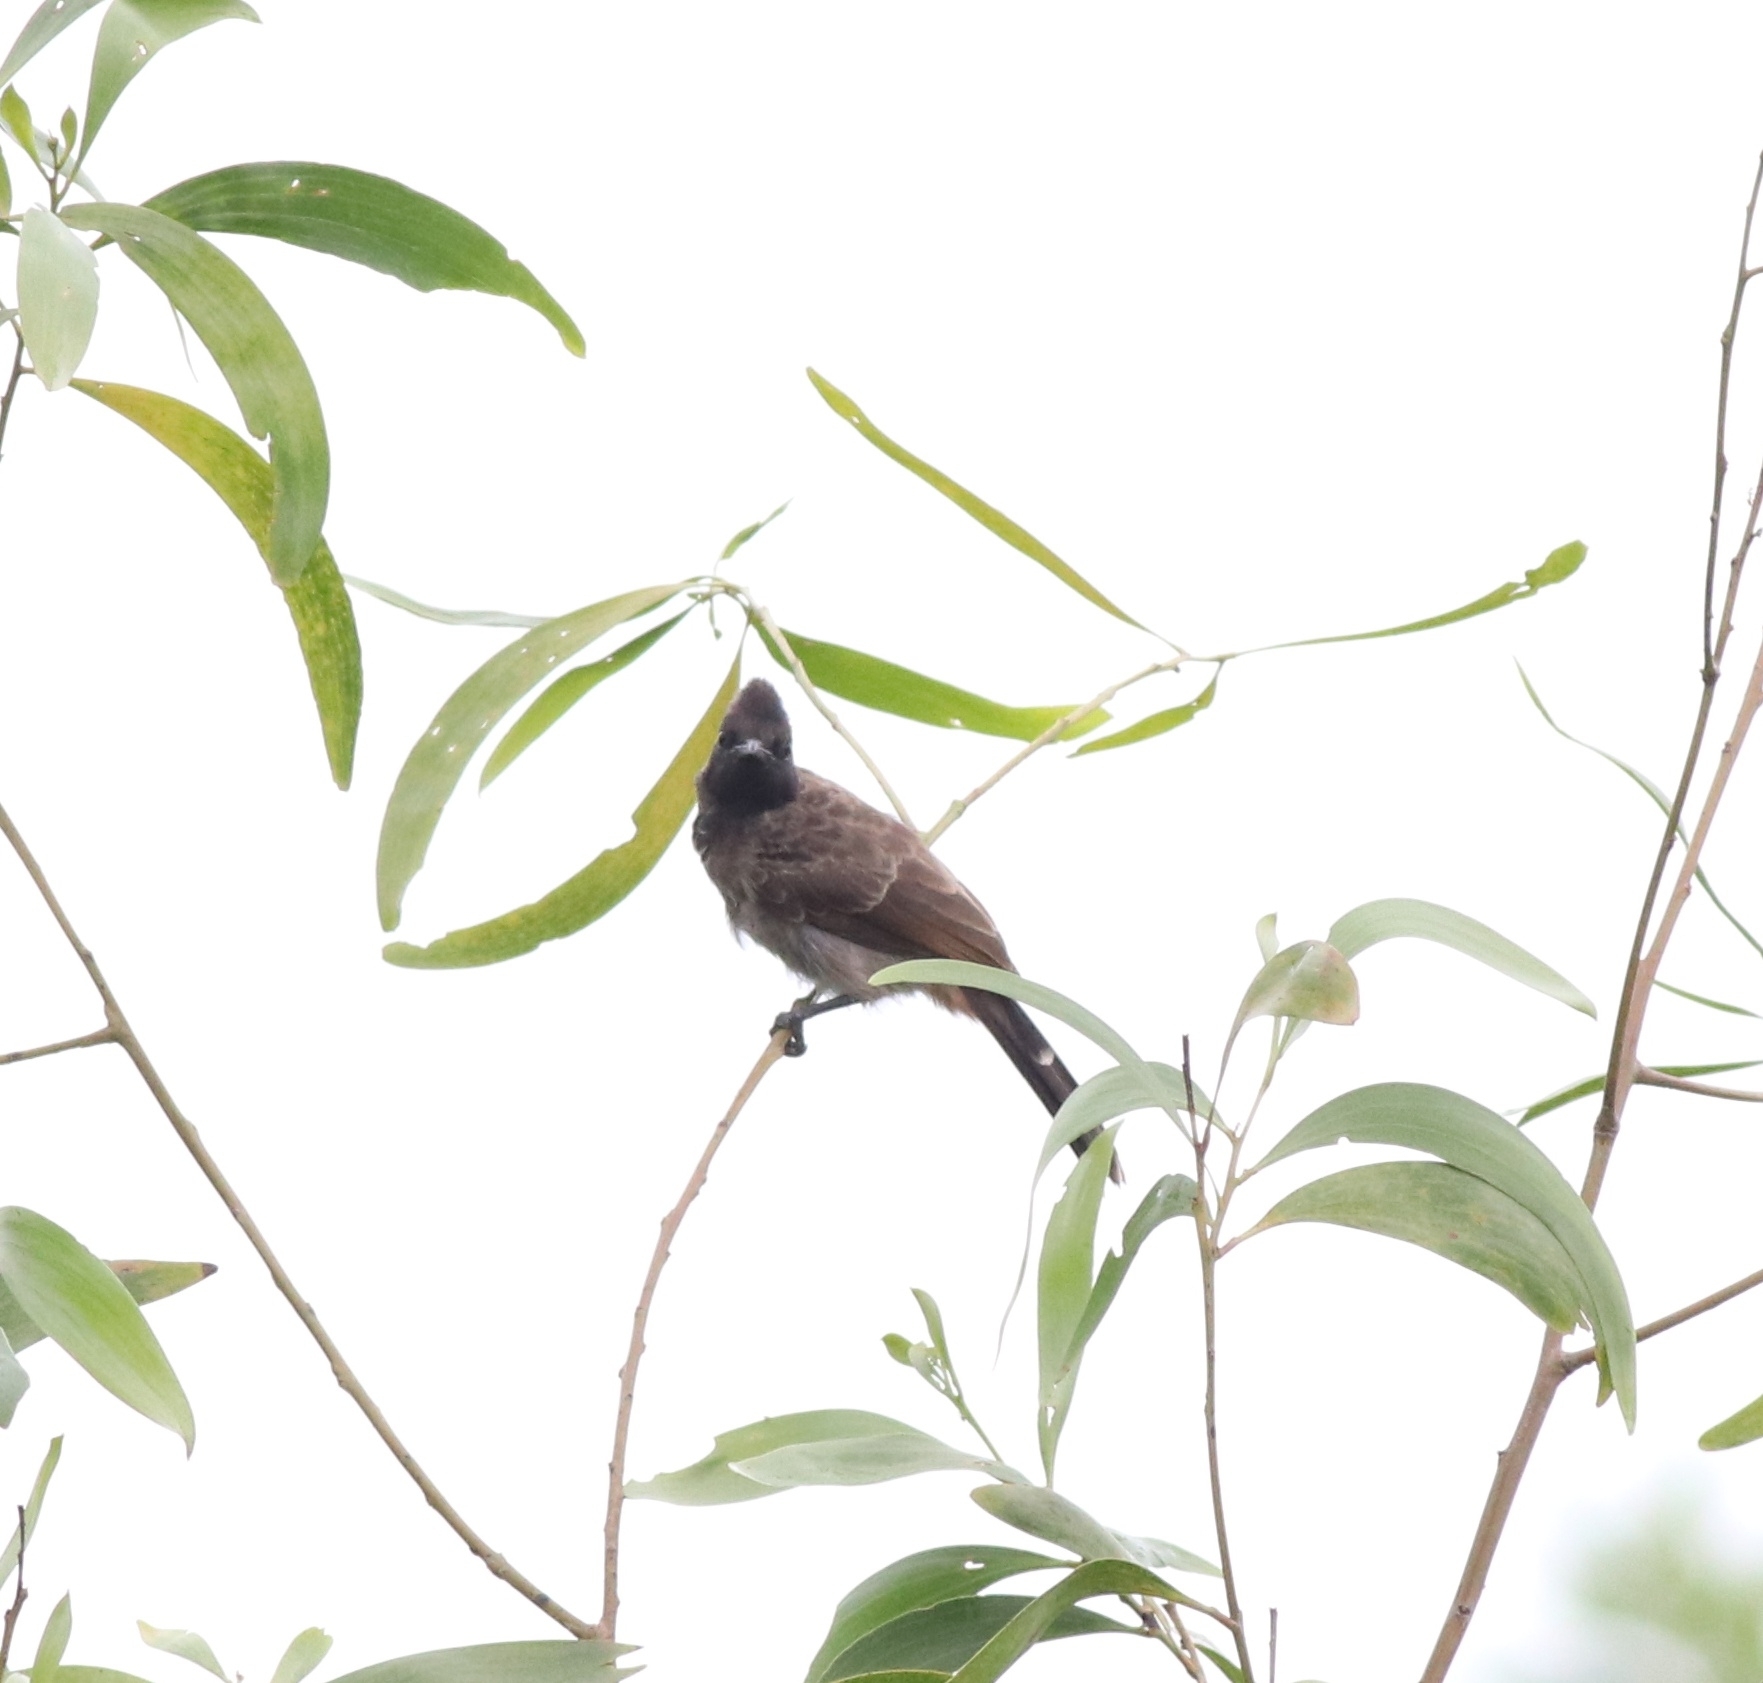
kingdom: Animalia
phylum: Chordata
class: Aves
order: Passeriformes
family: Pycnonotidae
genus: Pycnonotus
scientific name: Pycnonotus cafer
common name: Red-vented bulbul
